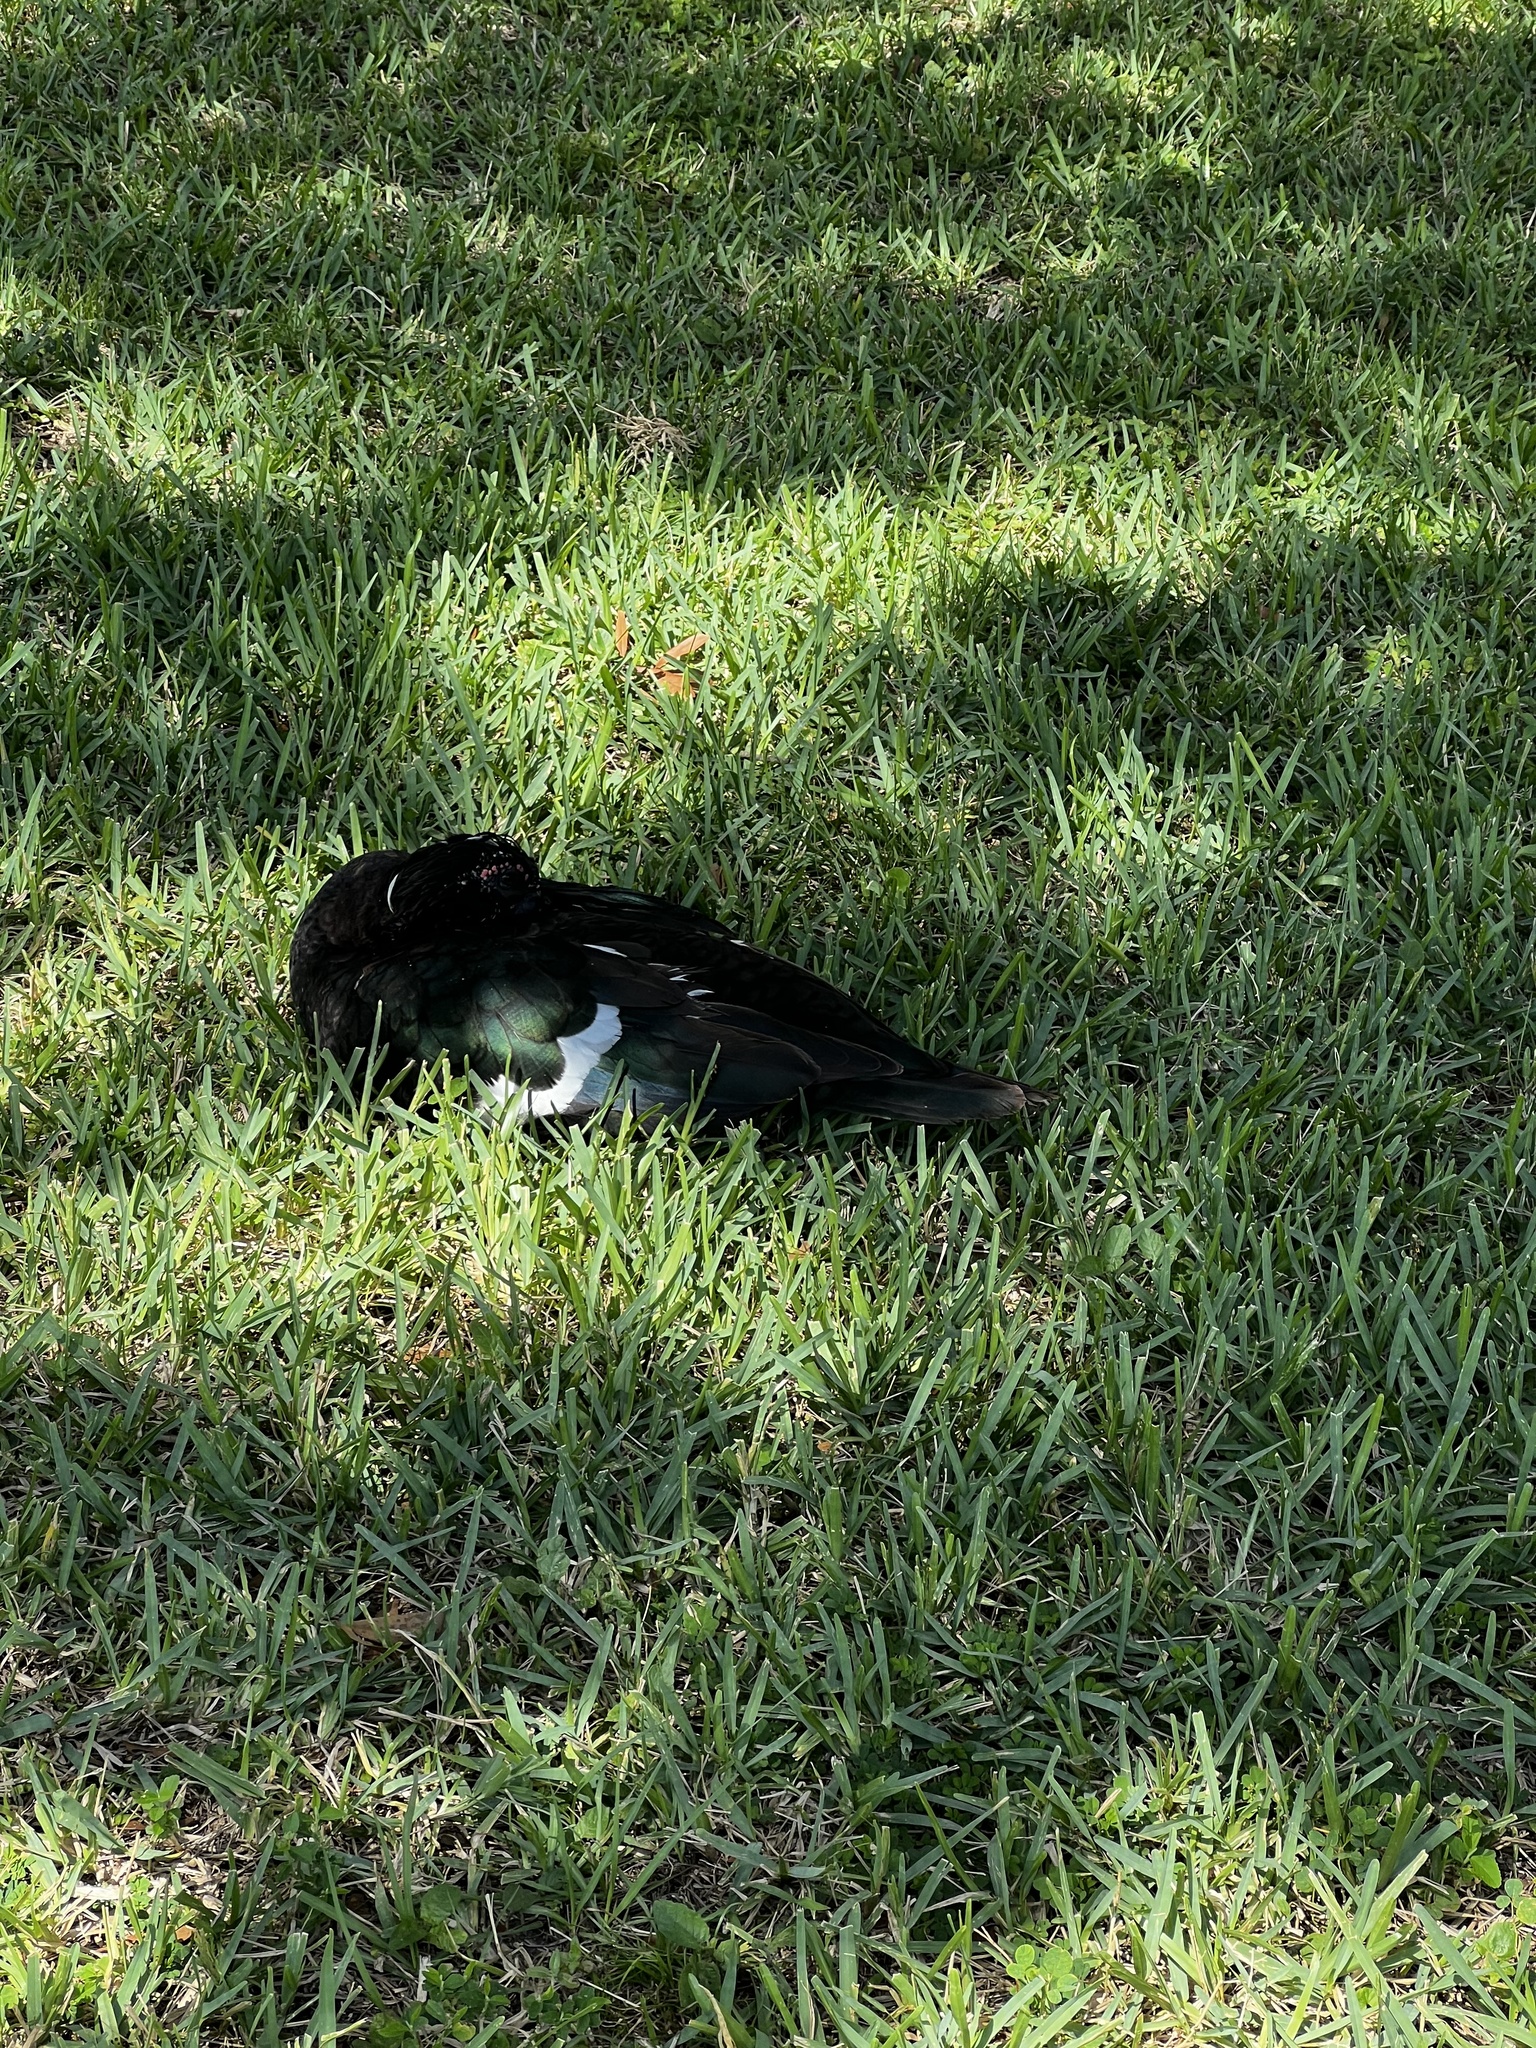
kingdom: Animalia
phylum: Chordata
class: Aves
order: Anseriformes
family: Anatidae
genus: Cairina
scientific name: Cairina moschata
